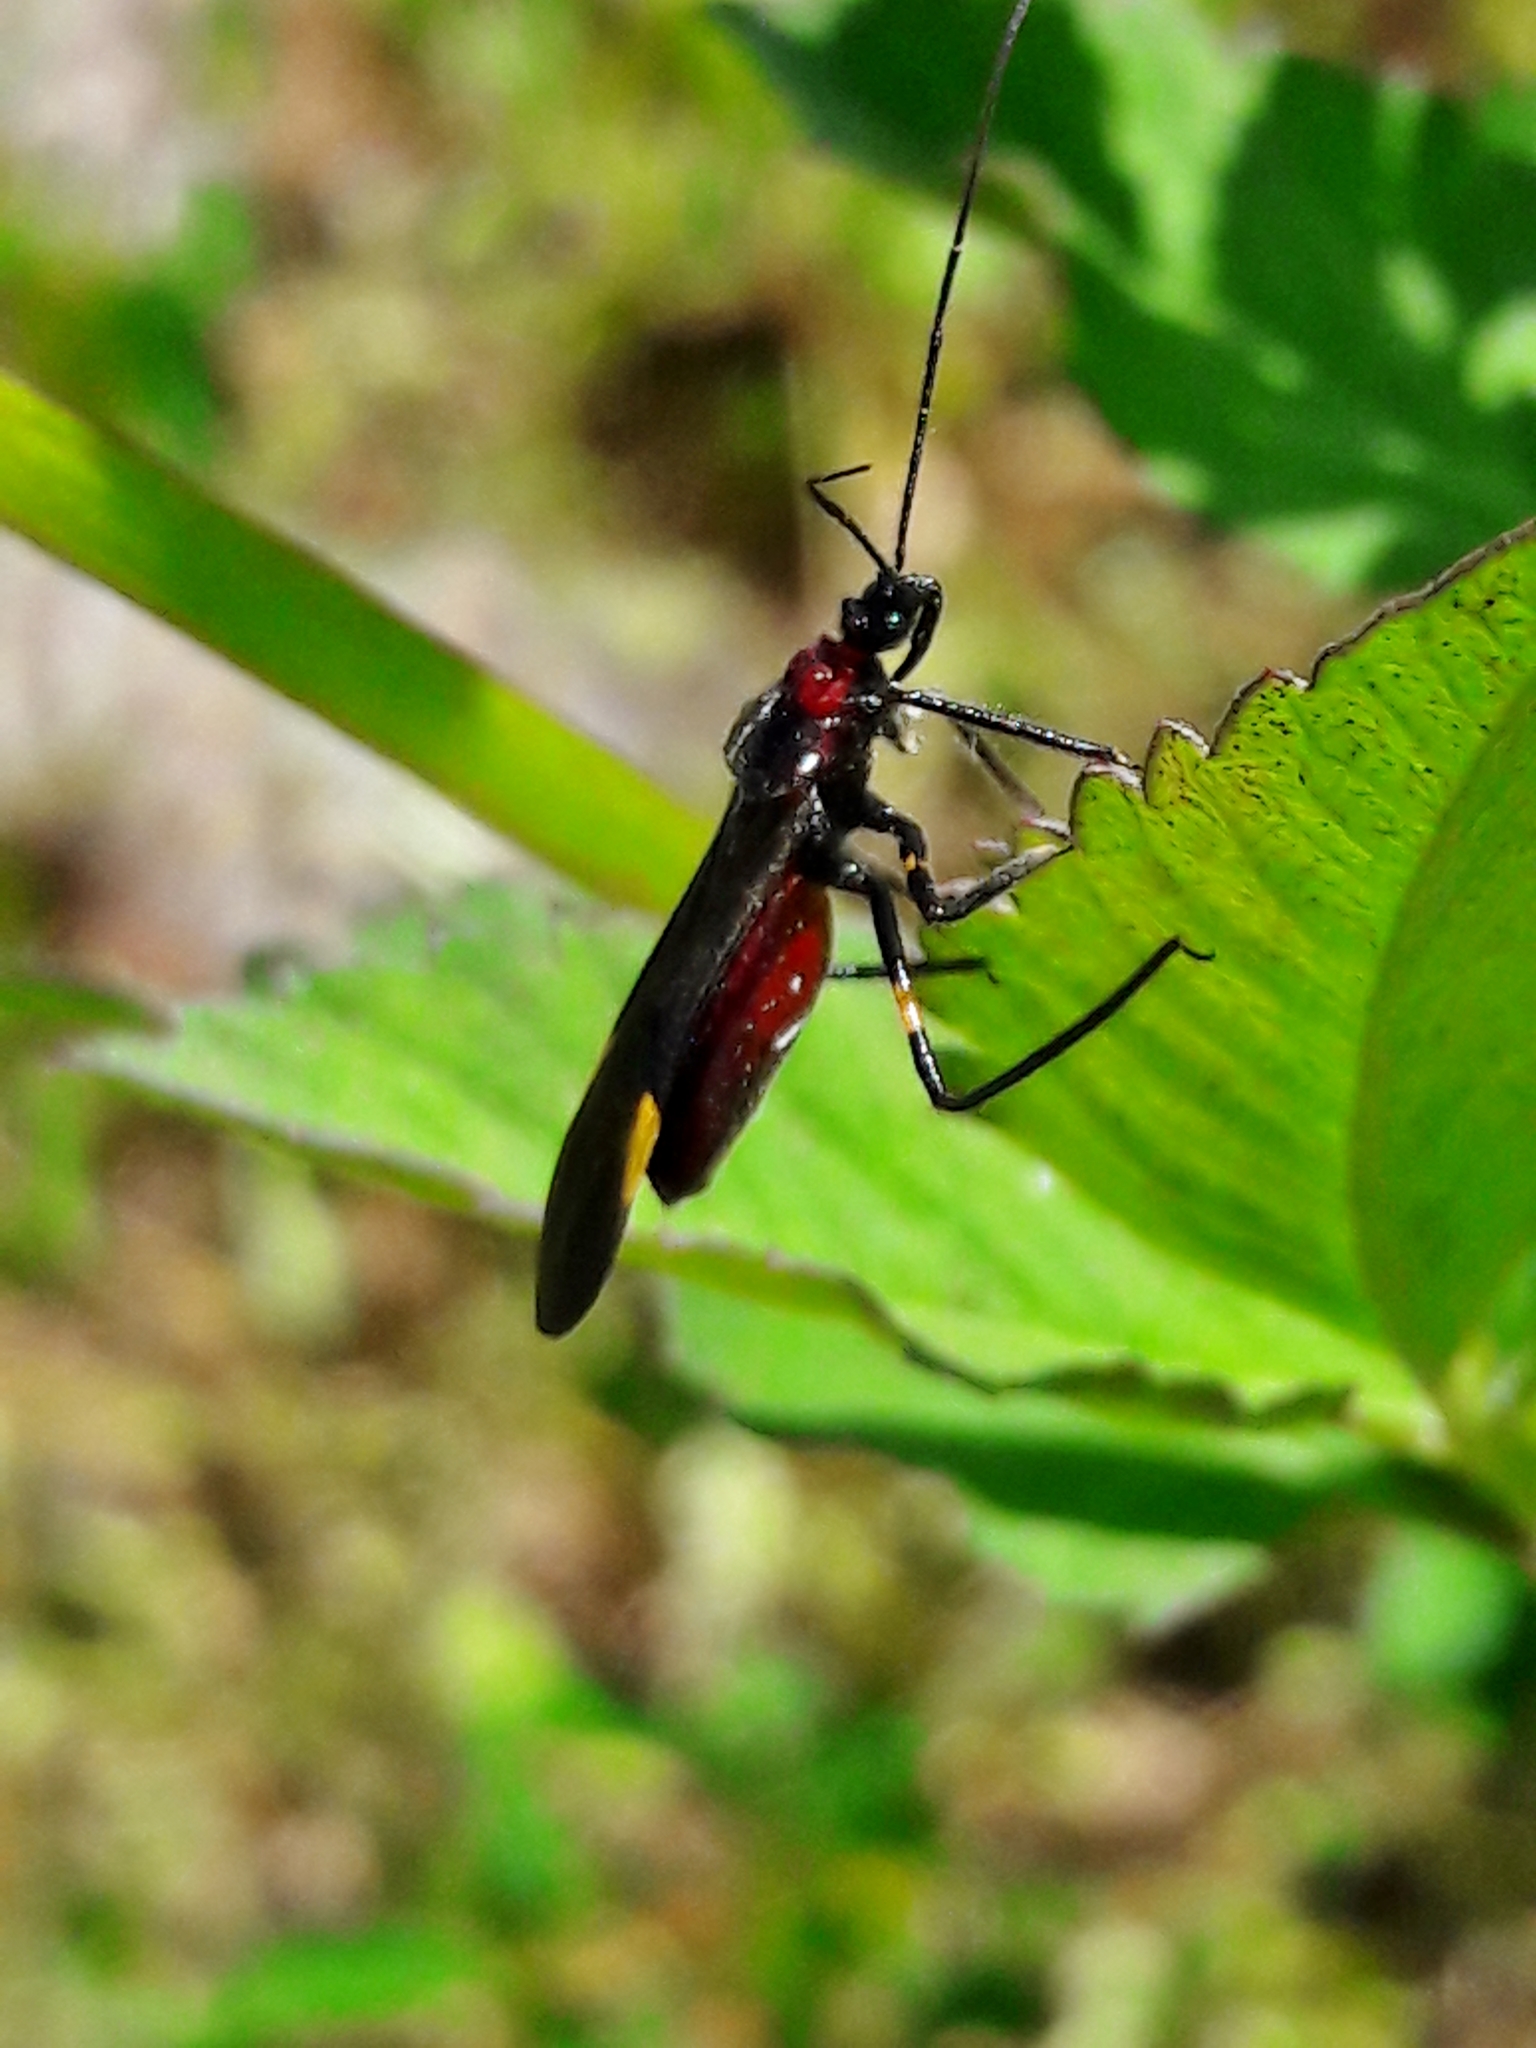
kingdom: Animalia
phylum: Arthropoda
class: Insecta
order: Hemiptera
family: Reduviidae
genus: Graptocleptes
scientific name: Graptocleptes bicolor
